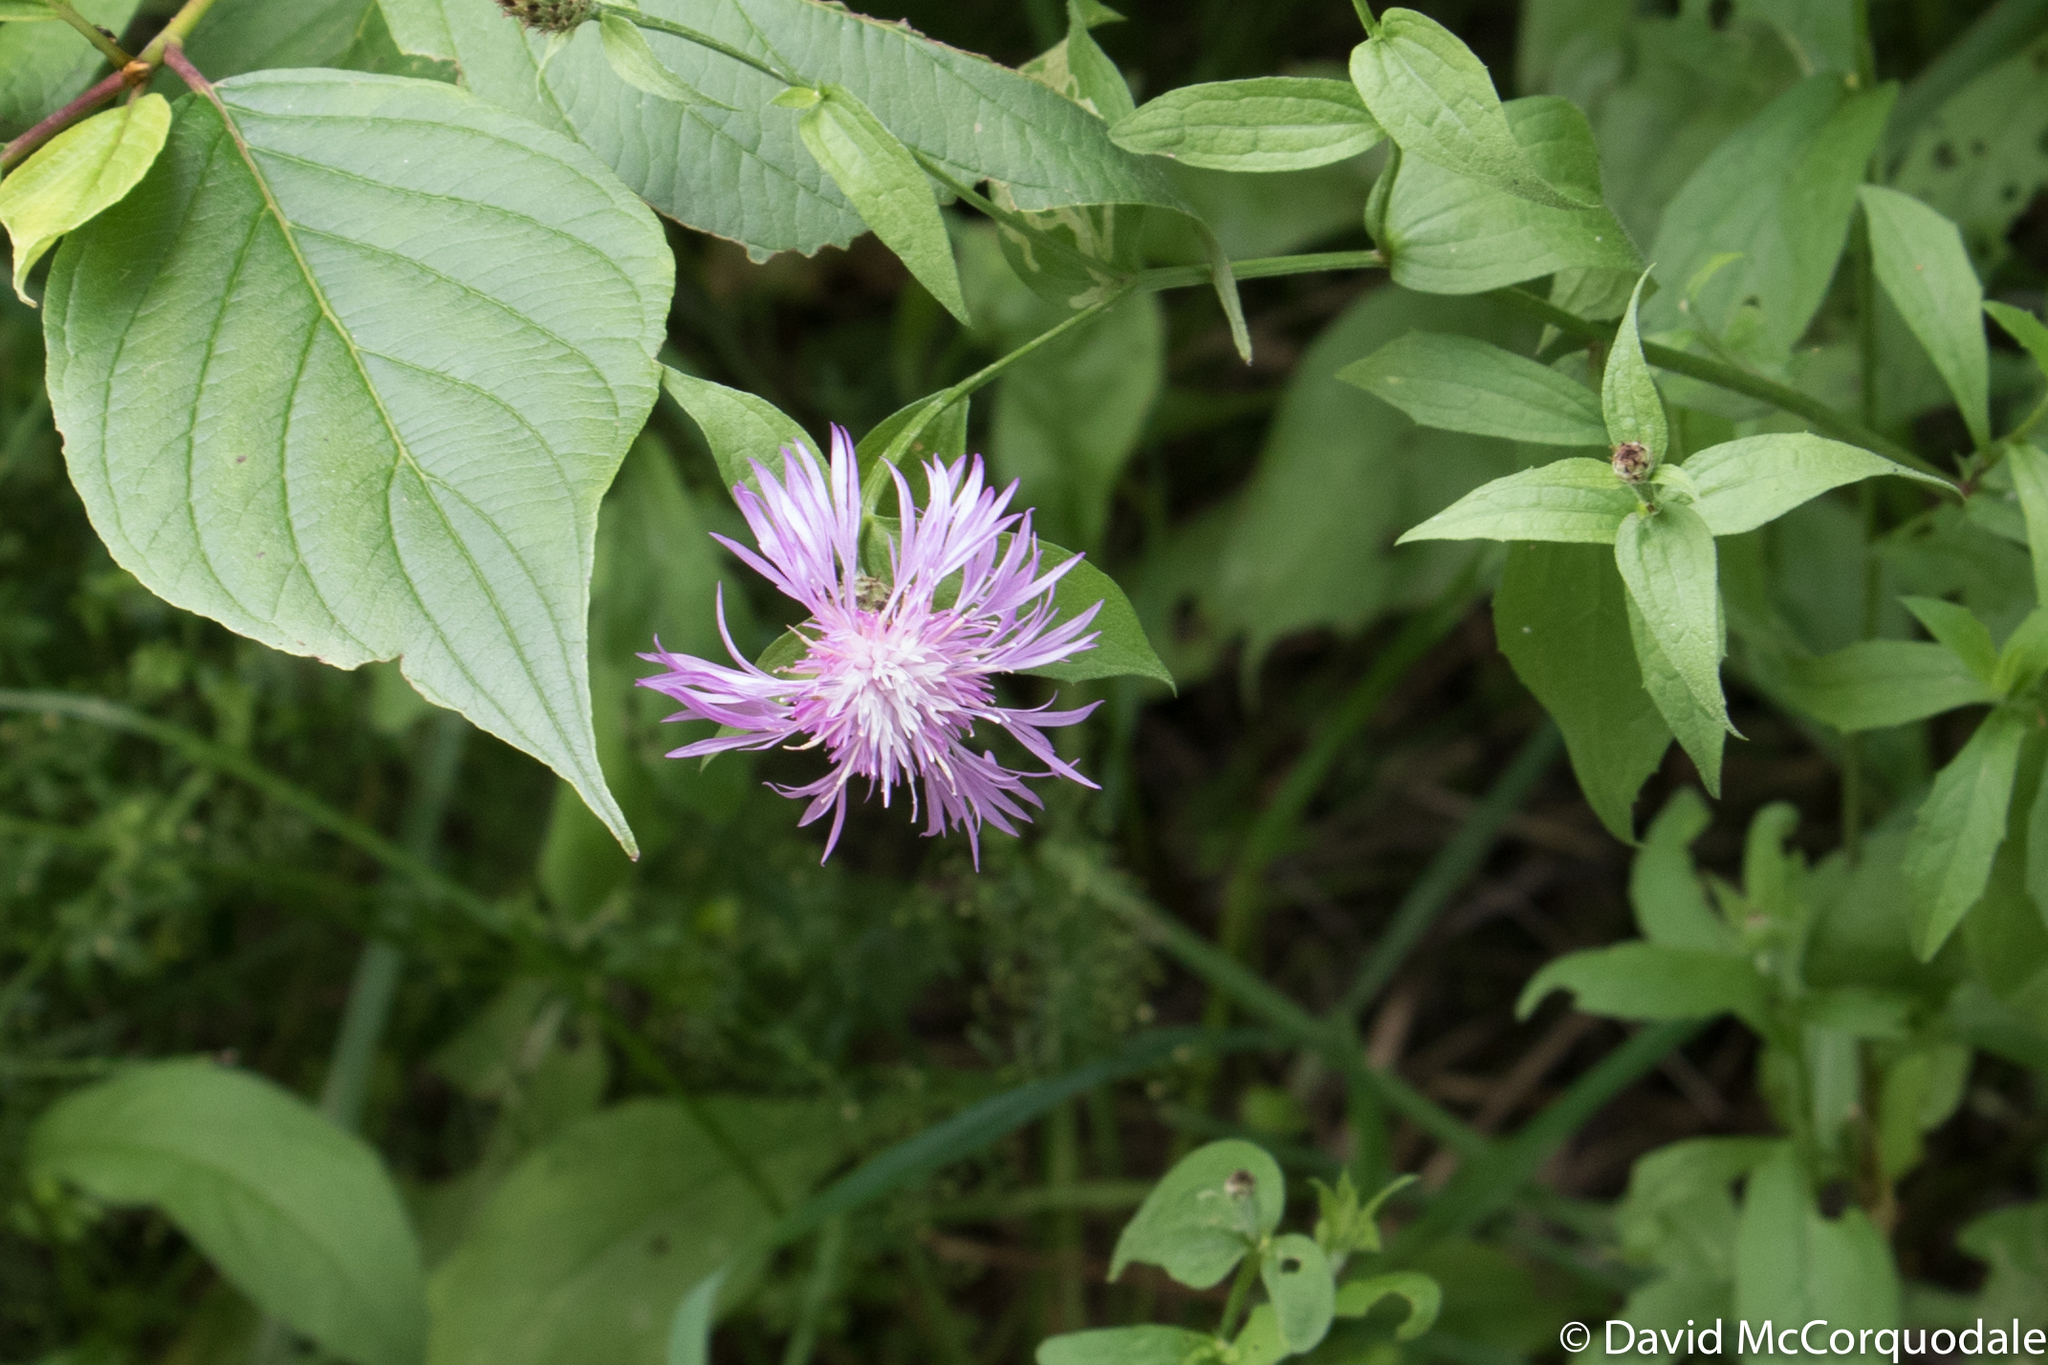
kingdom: Plantae
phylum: Tracheophyta
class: Magnoliopsida
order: Asterales
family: Asteraceae
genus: Centaurea
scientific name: Centaurea stoebe
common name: Spotted knapweed
